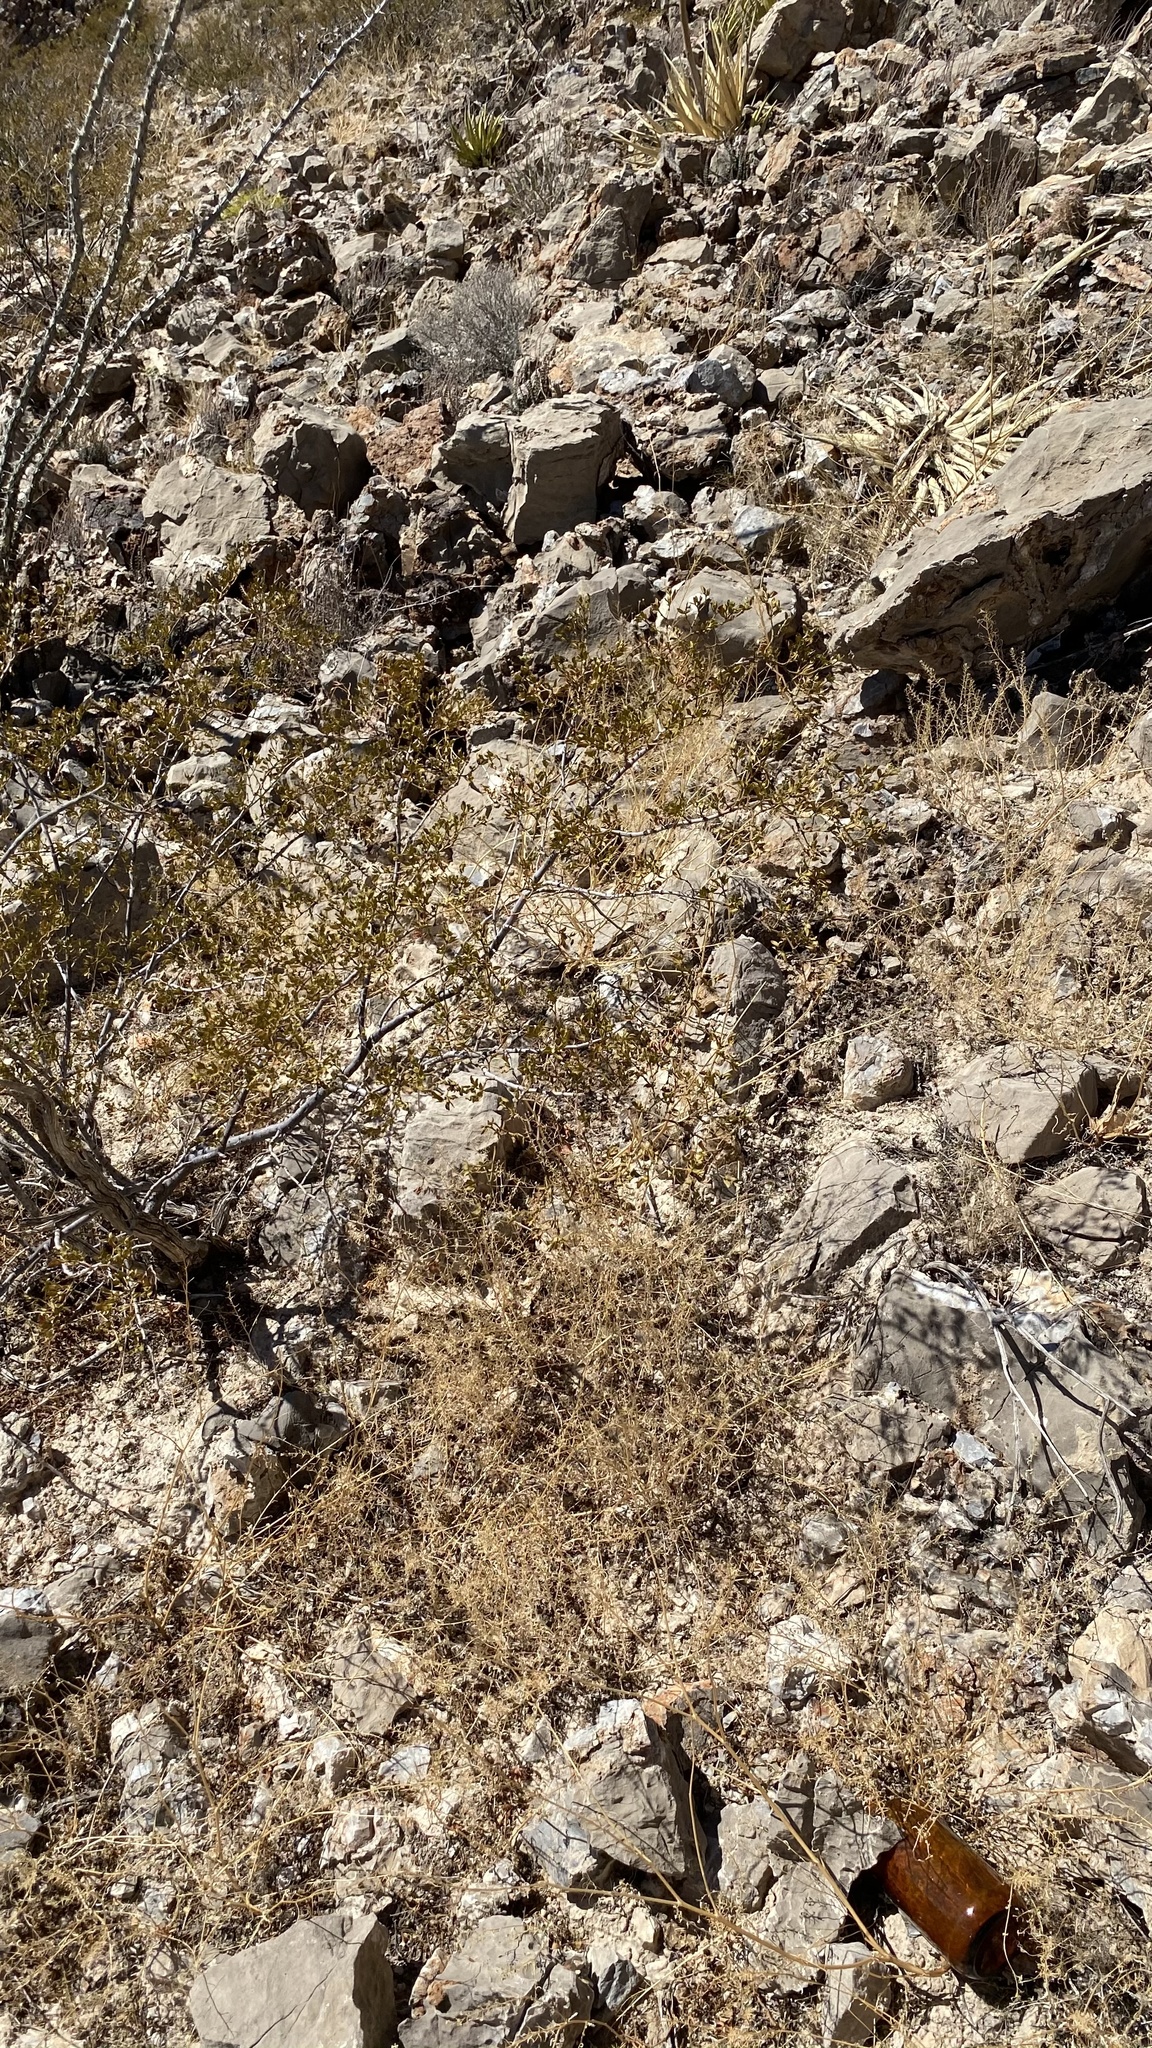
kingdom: Plantae
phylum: Tracheophyta
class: Magnoliopsida
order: Zygophyllales
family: Zygophyllaceae
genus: Larrea
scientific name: Larrea tridentata
